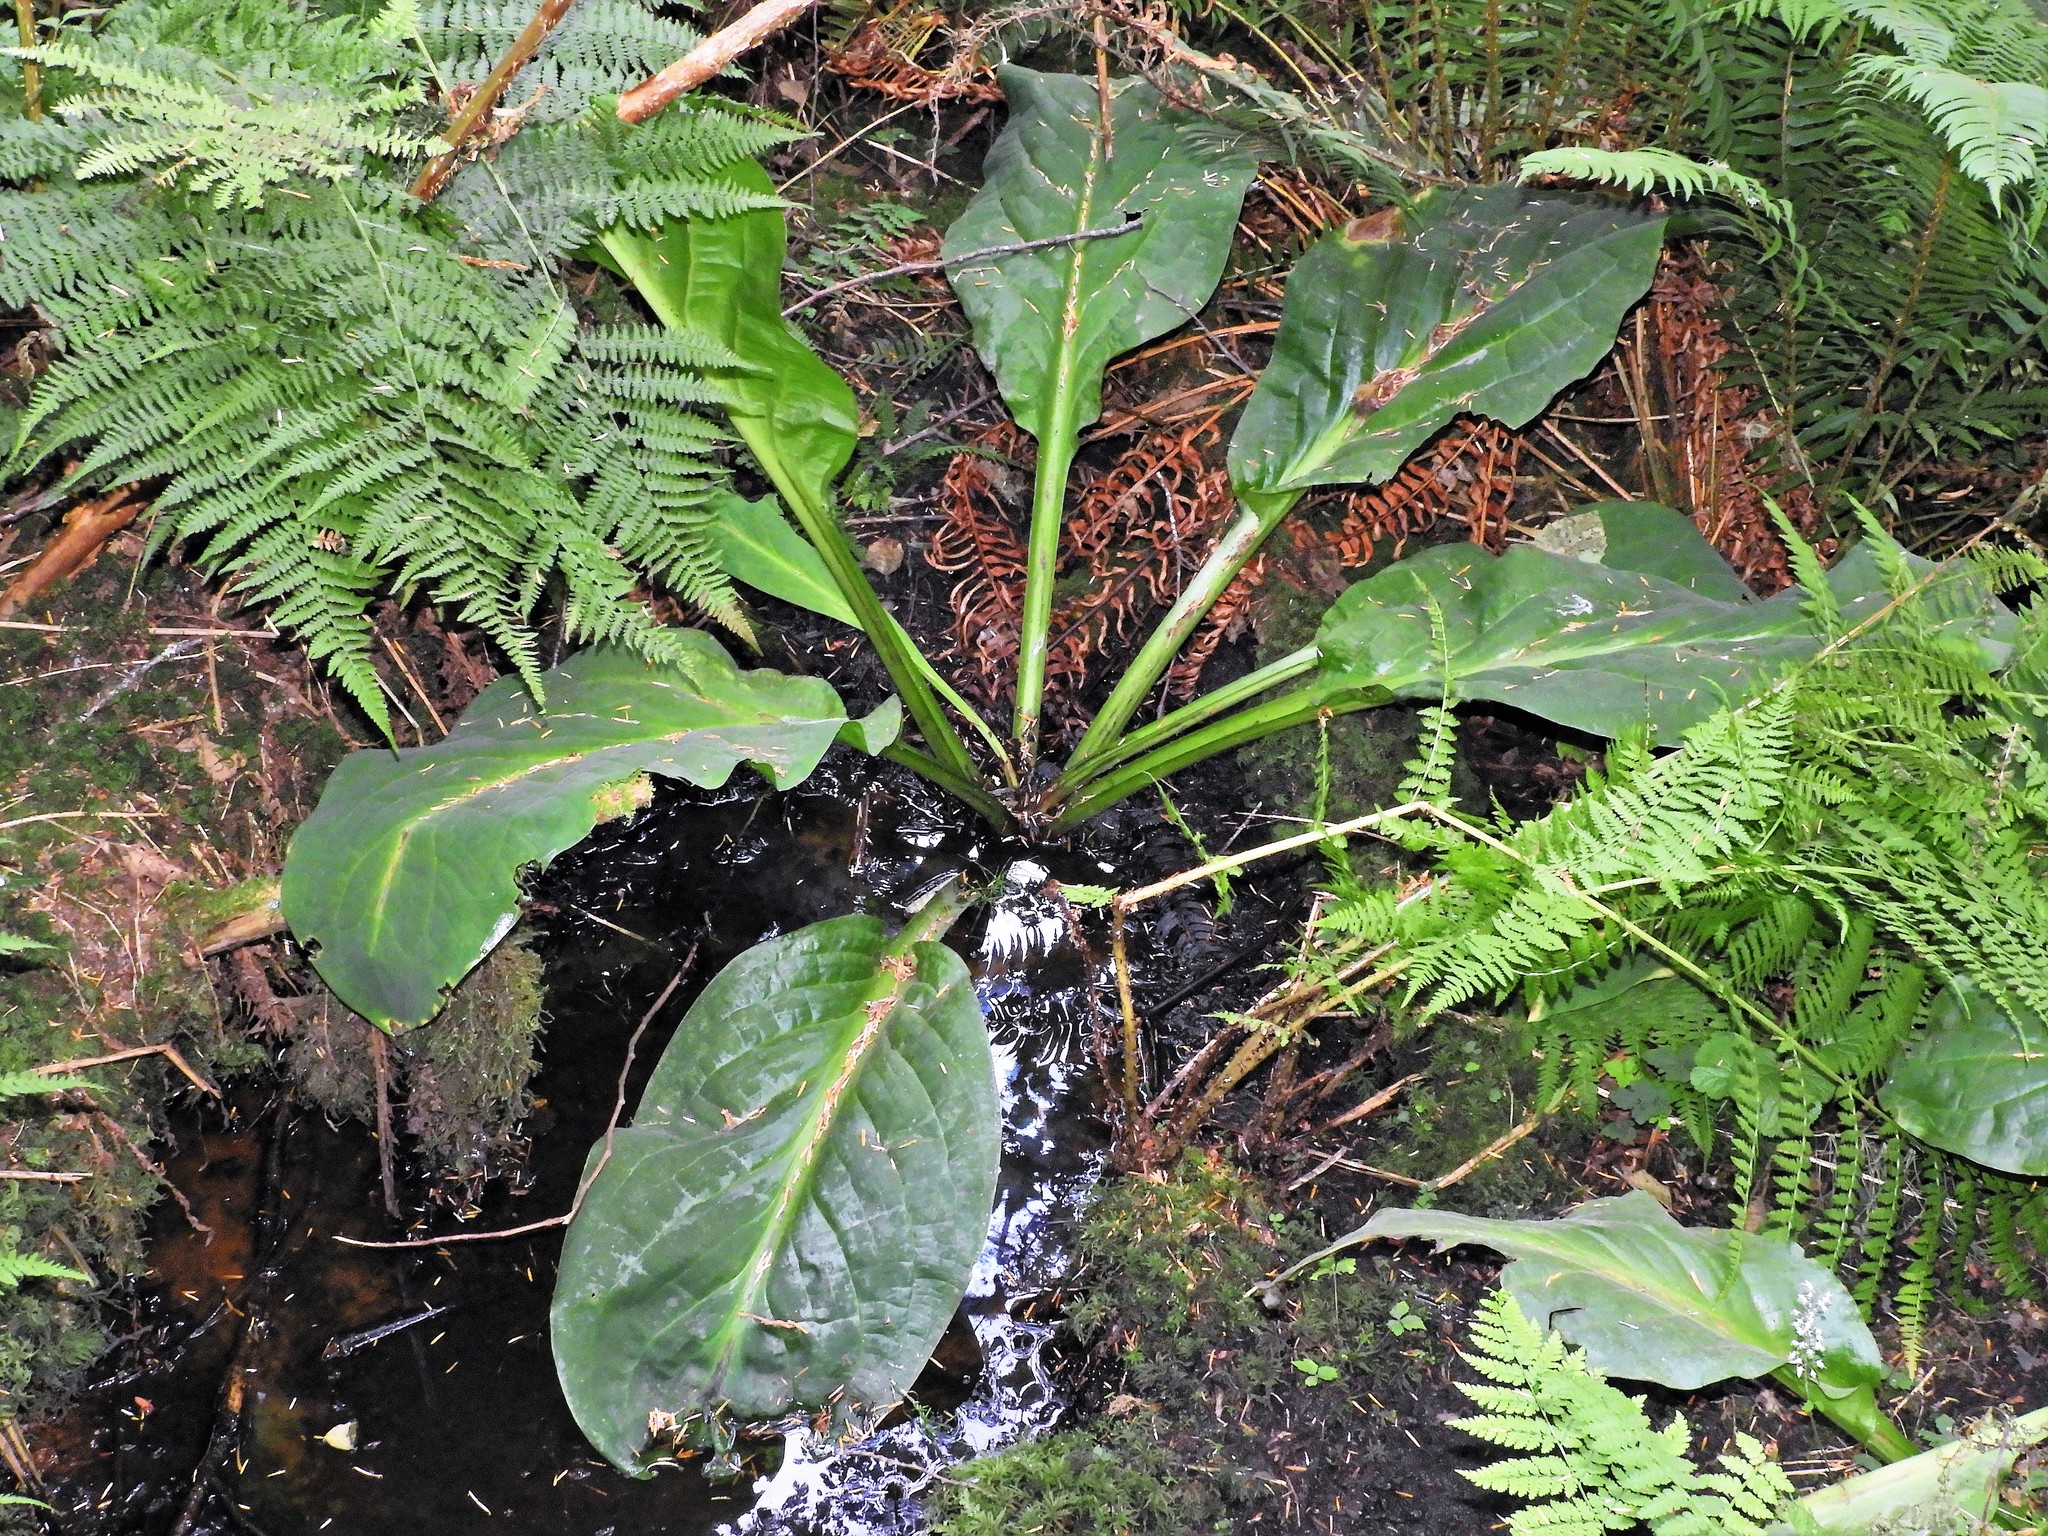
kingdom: Plantae
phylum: Tracheophyta
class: Liliopsida
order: Alismatales
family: Araceae
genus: Lysichiton
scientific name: Lysichiton americanus
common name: American skunk cabbage
